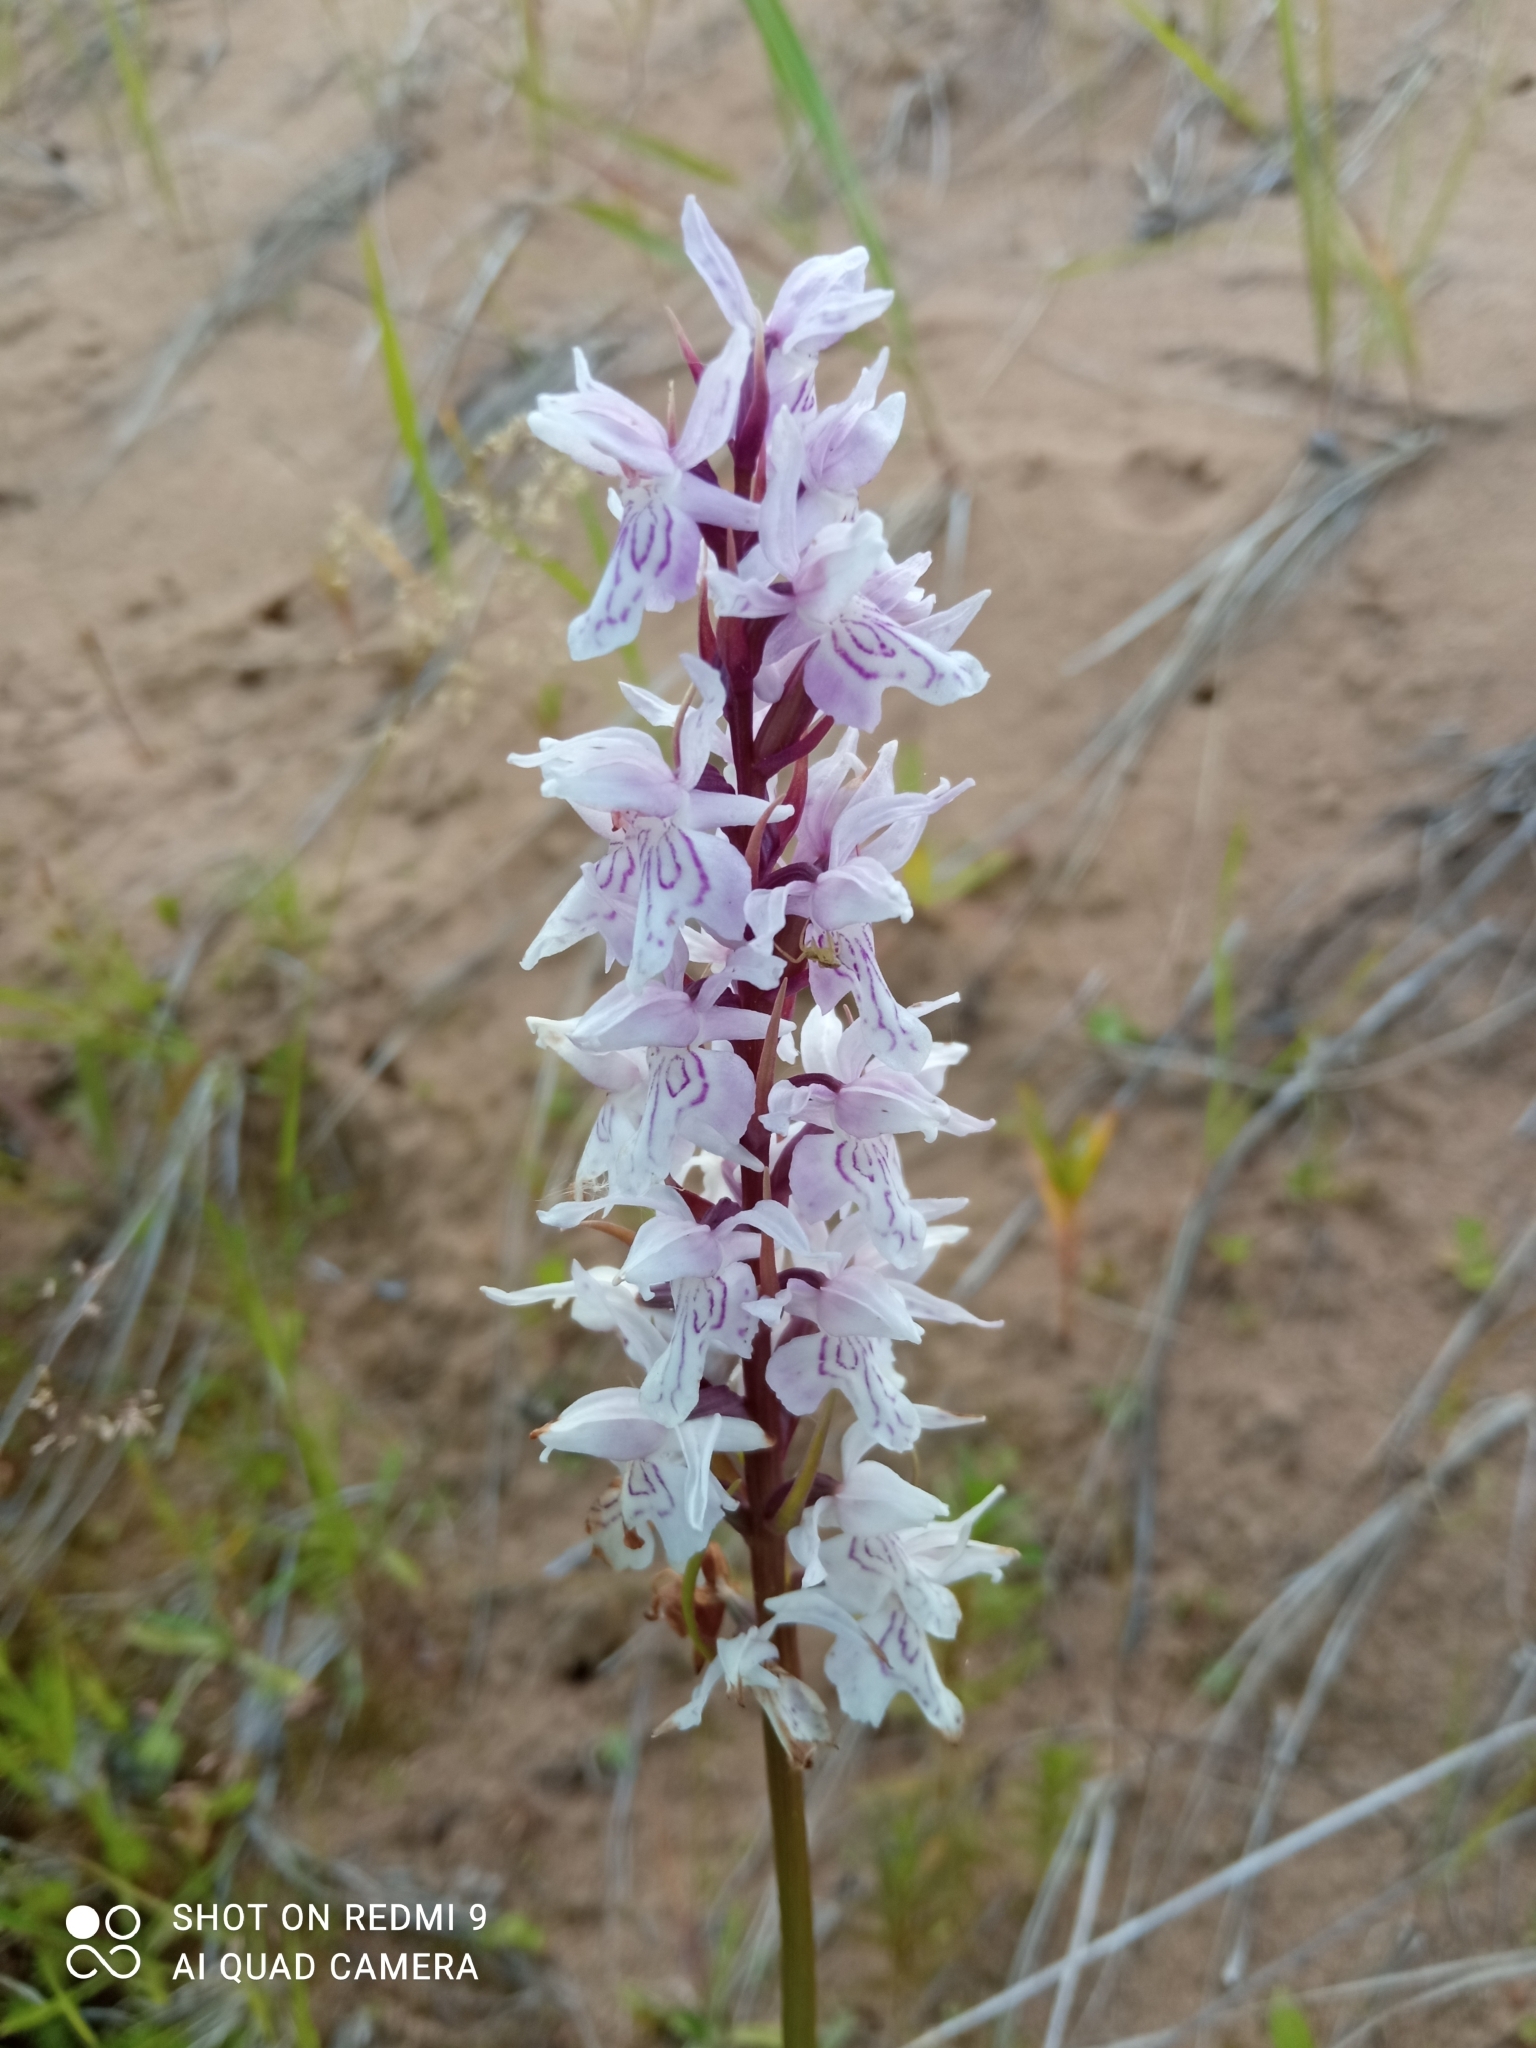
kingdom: Plantae
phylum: Tracheophyta
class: Liliopsida
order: Asparagales
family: Orchidaceae
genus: Dactylorhiza
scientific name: Dactylorhiza maculata
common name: Heath spotted-orchid
